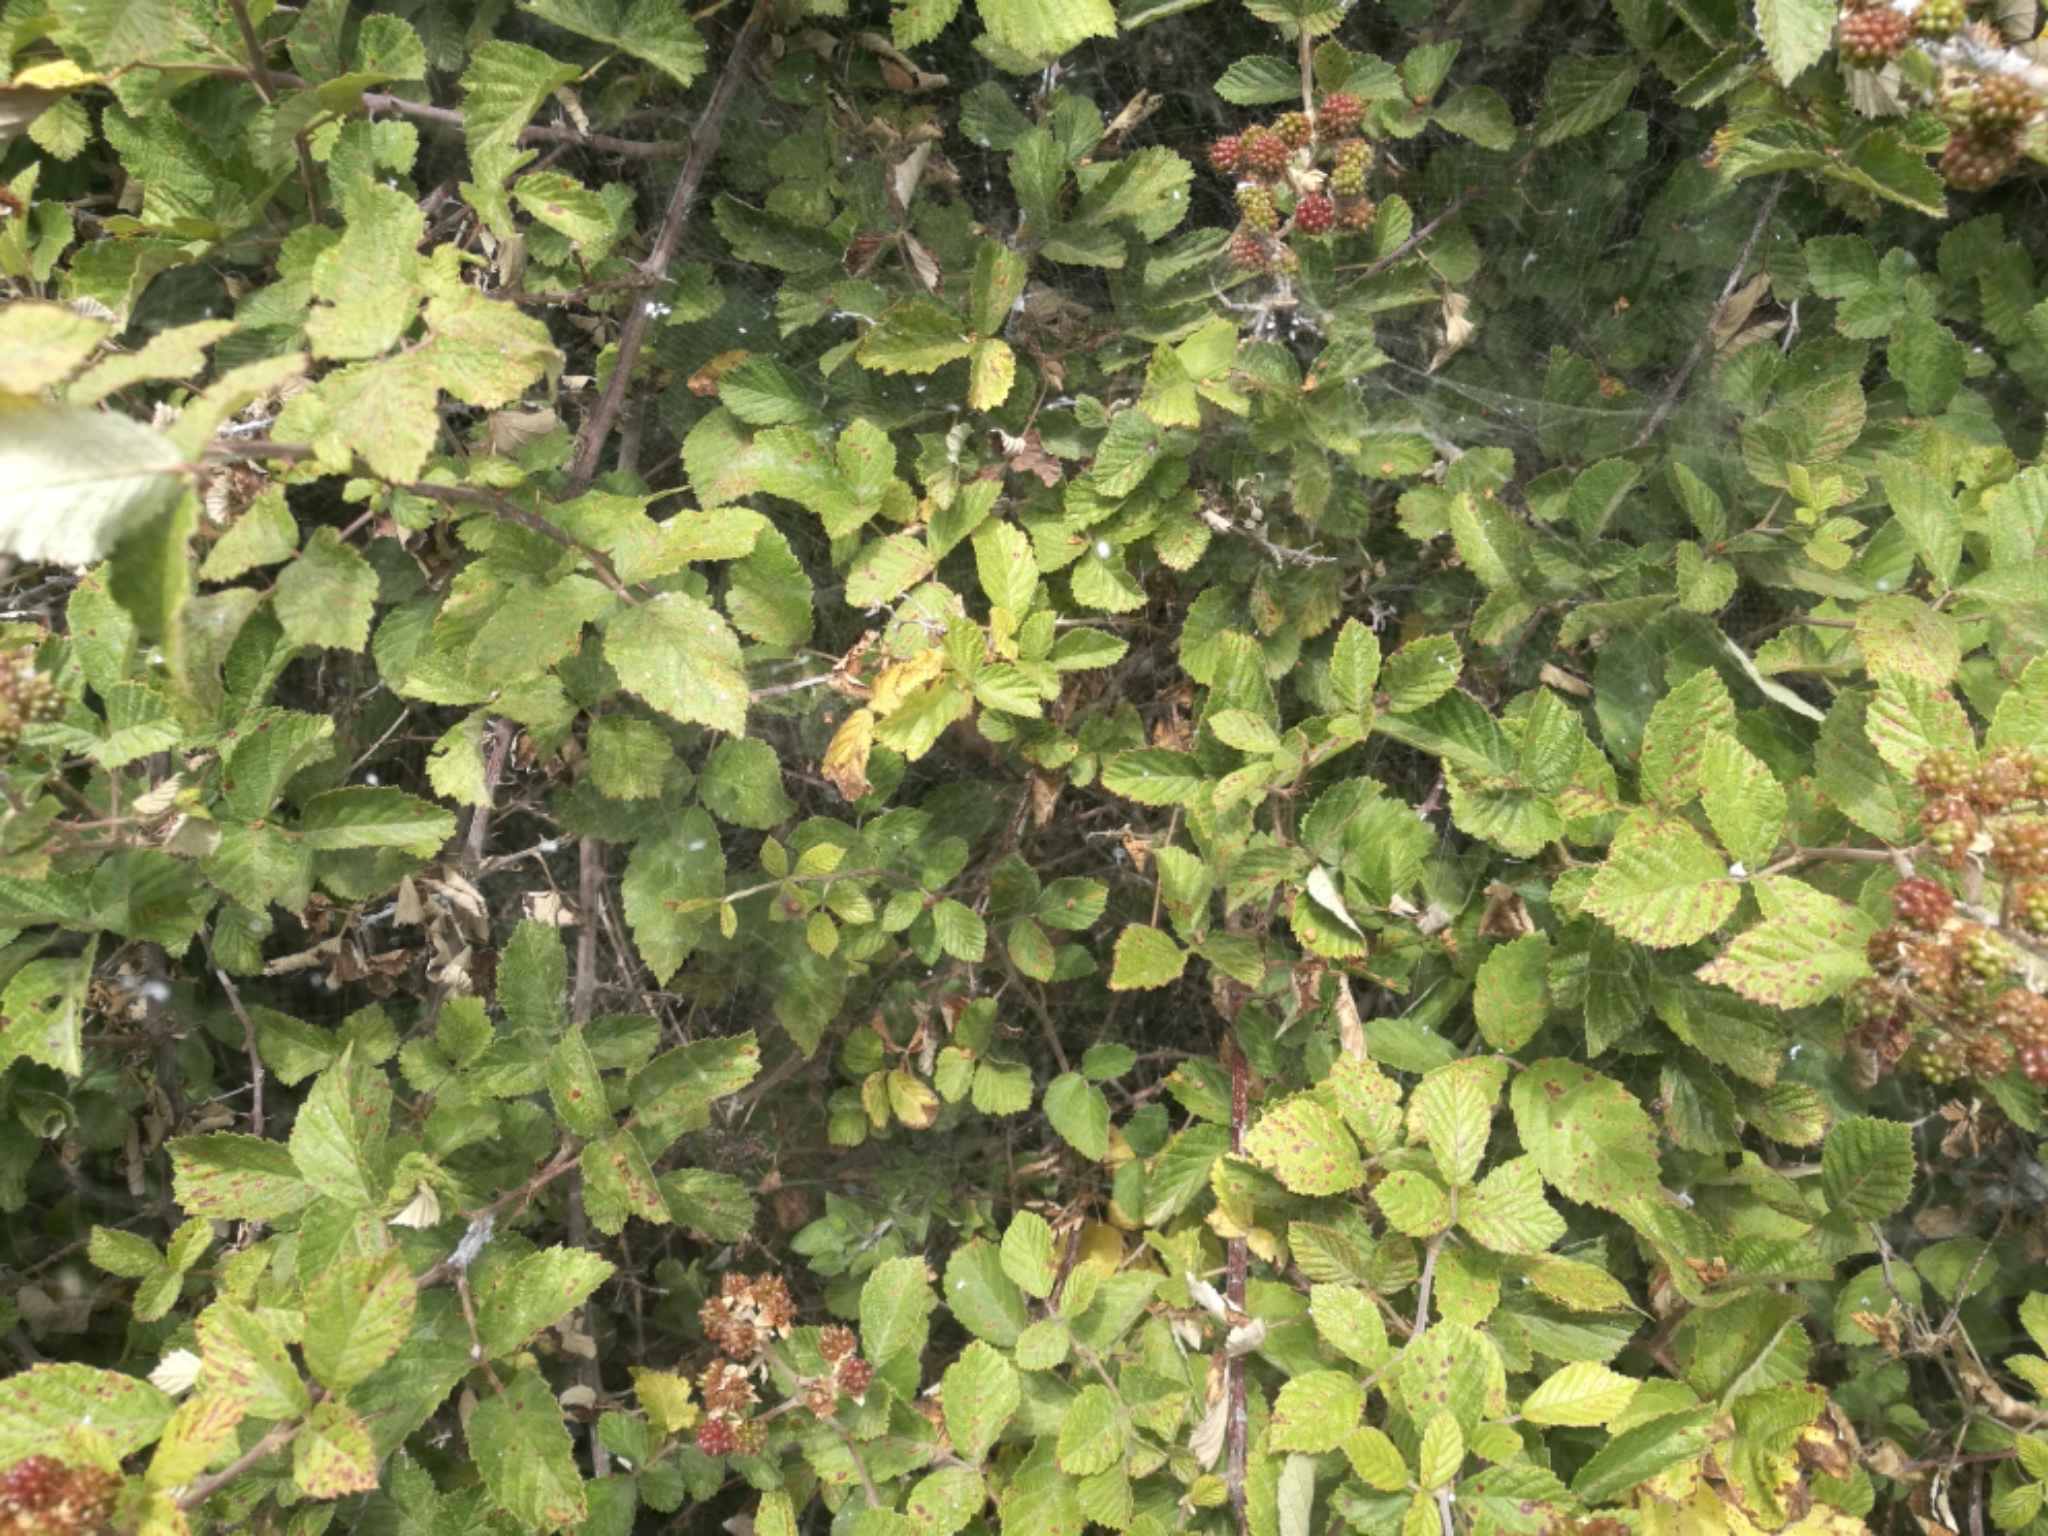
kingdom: Animalia
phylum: Arthropoda
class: Arachnida
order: Araneae
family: Araneidae
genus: Cyrtophora
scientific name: Cyrtophora citricola
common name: Orb weavers
